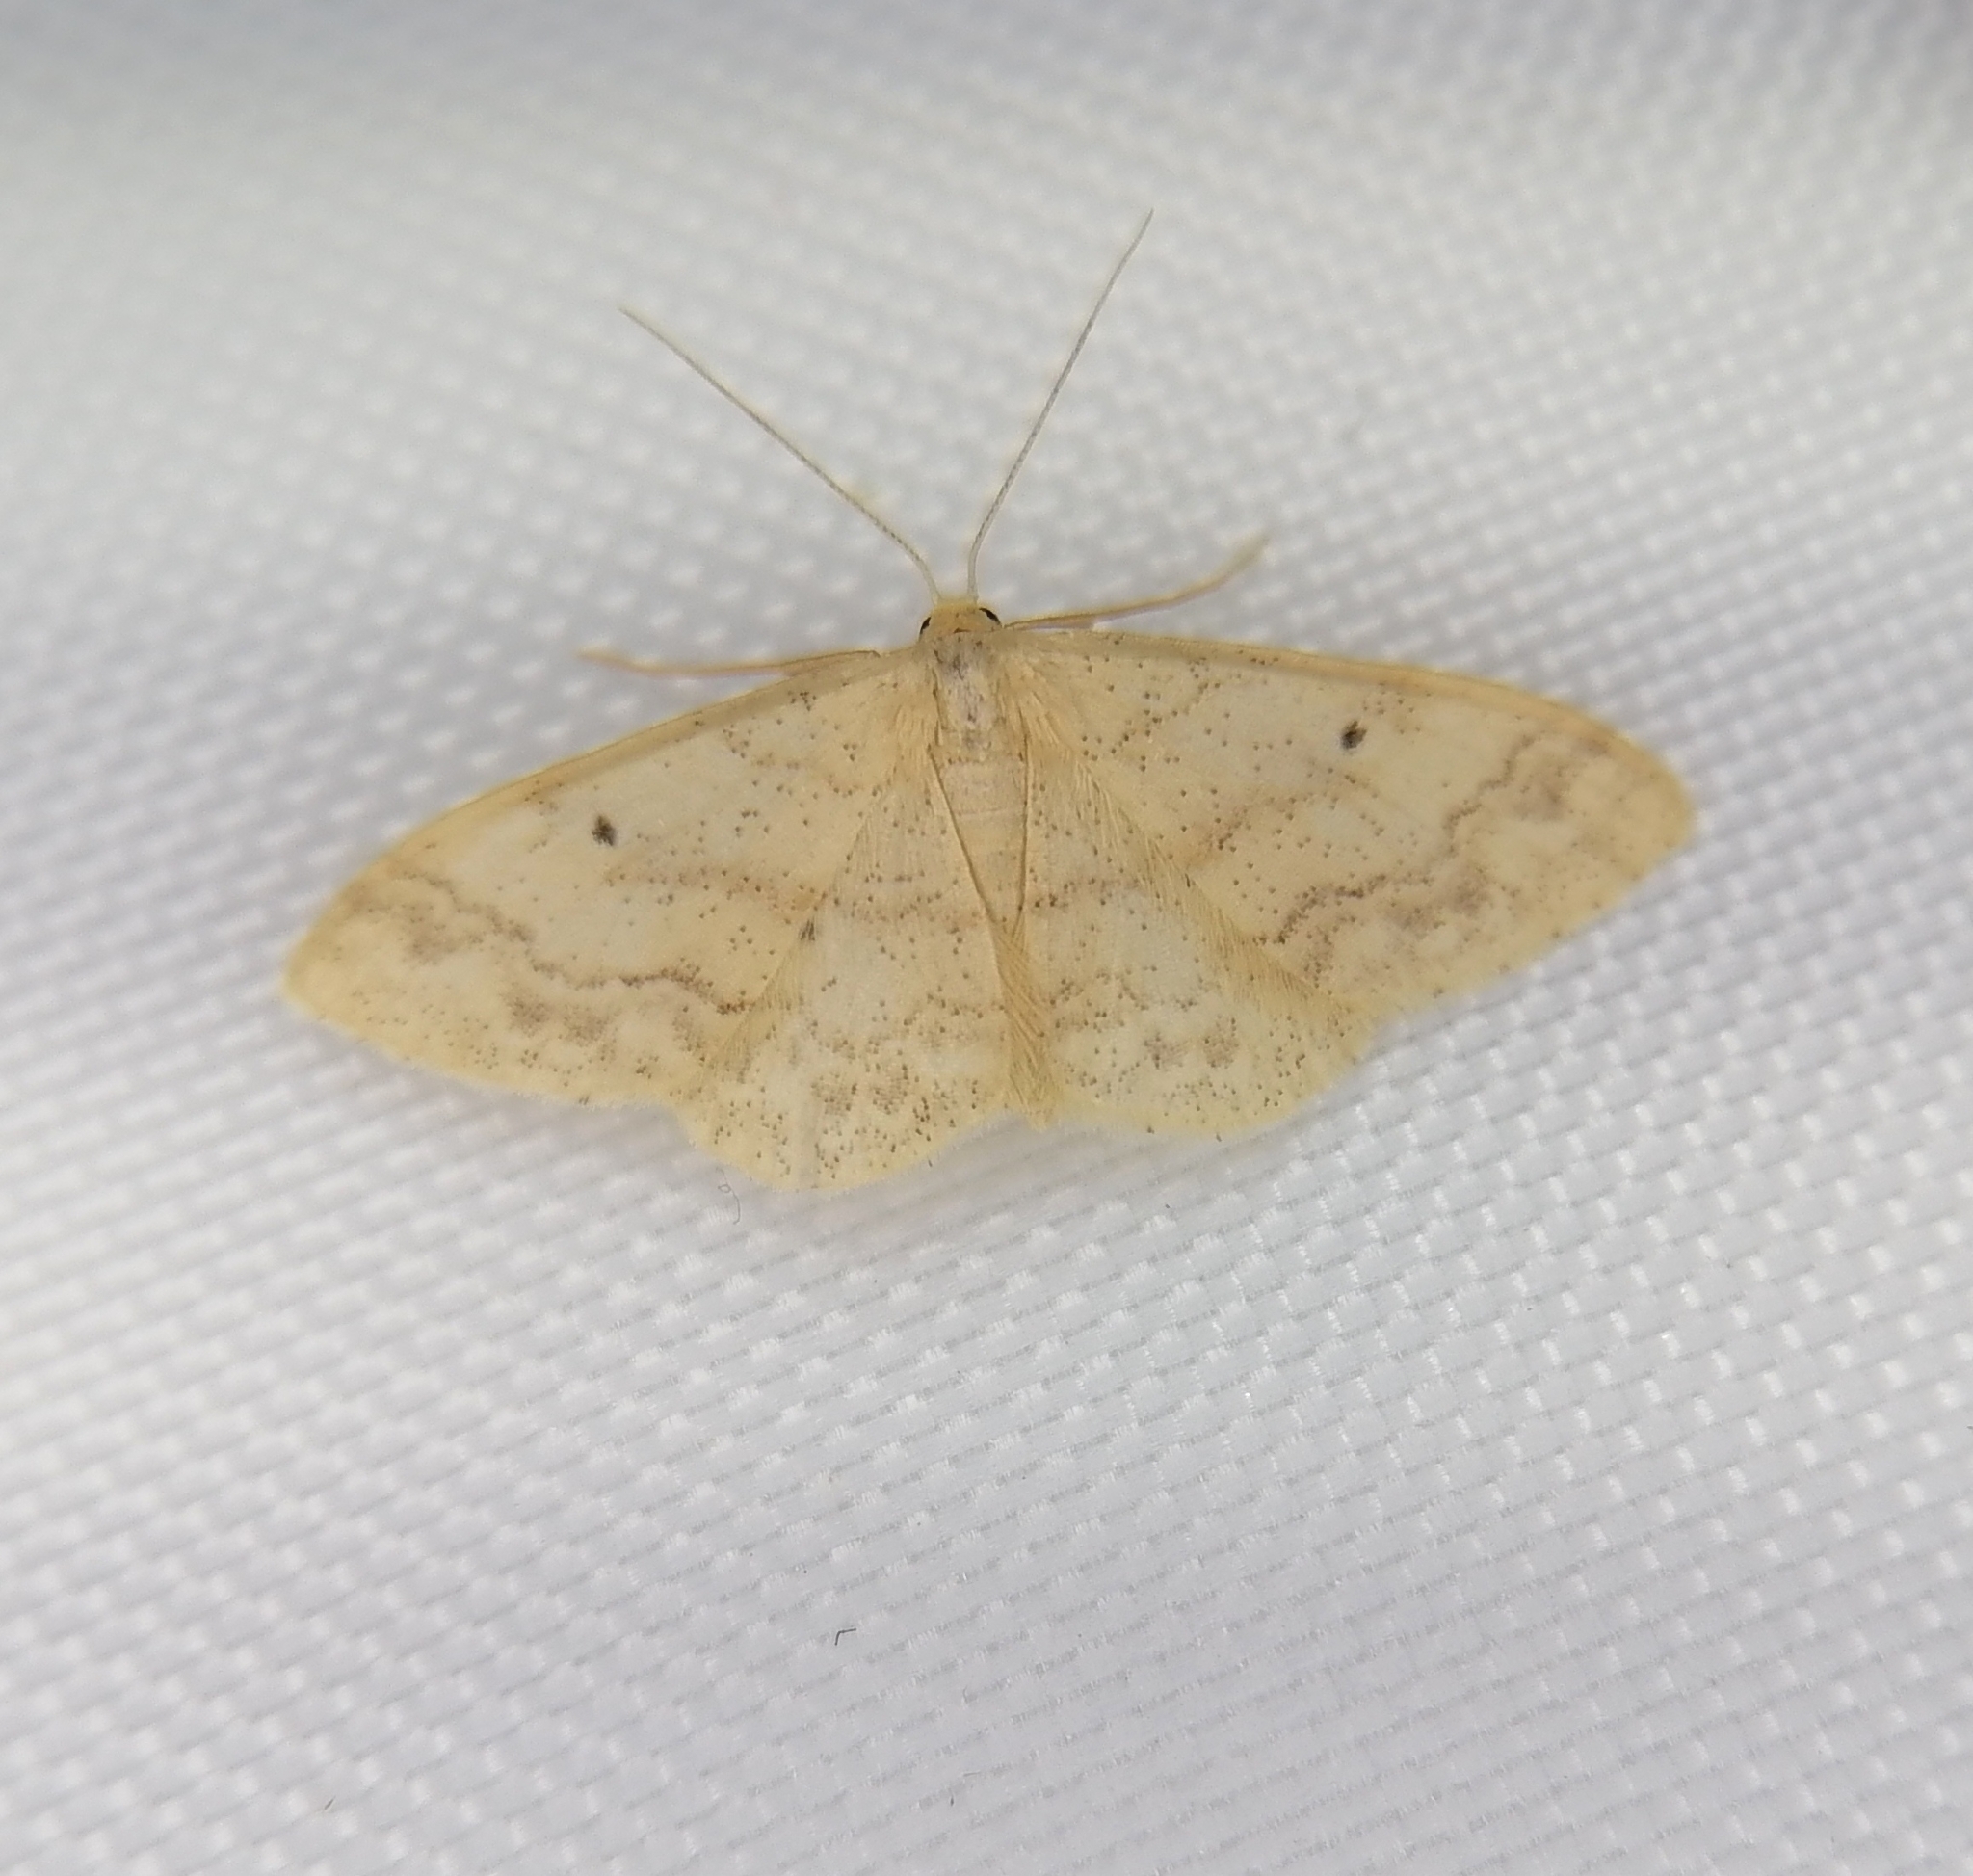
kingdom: Animalia
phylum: Arthropoda
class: Insecta
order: Lepidoptera
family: Geometridae
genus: Idaea
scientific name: Idaea biselata
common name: Small fan-footed wave
